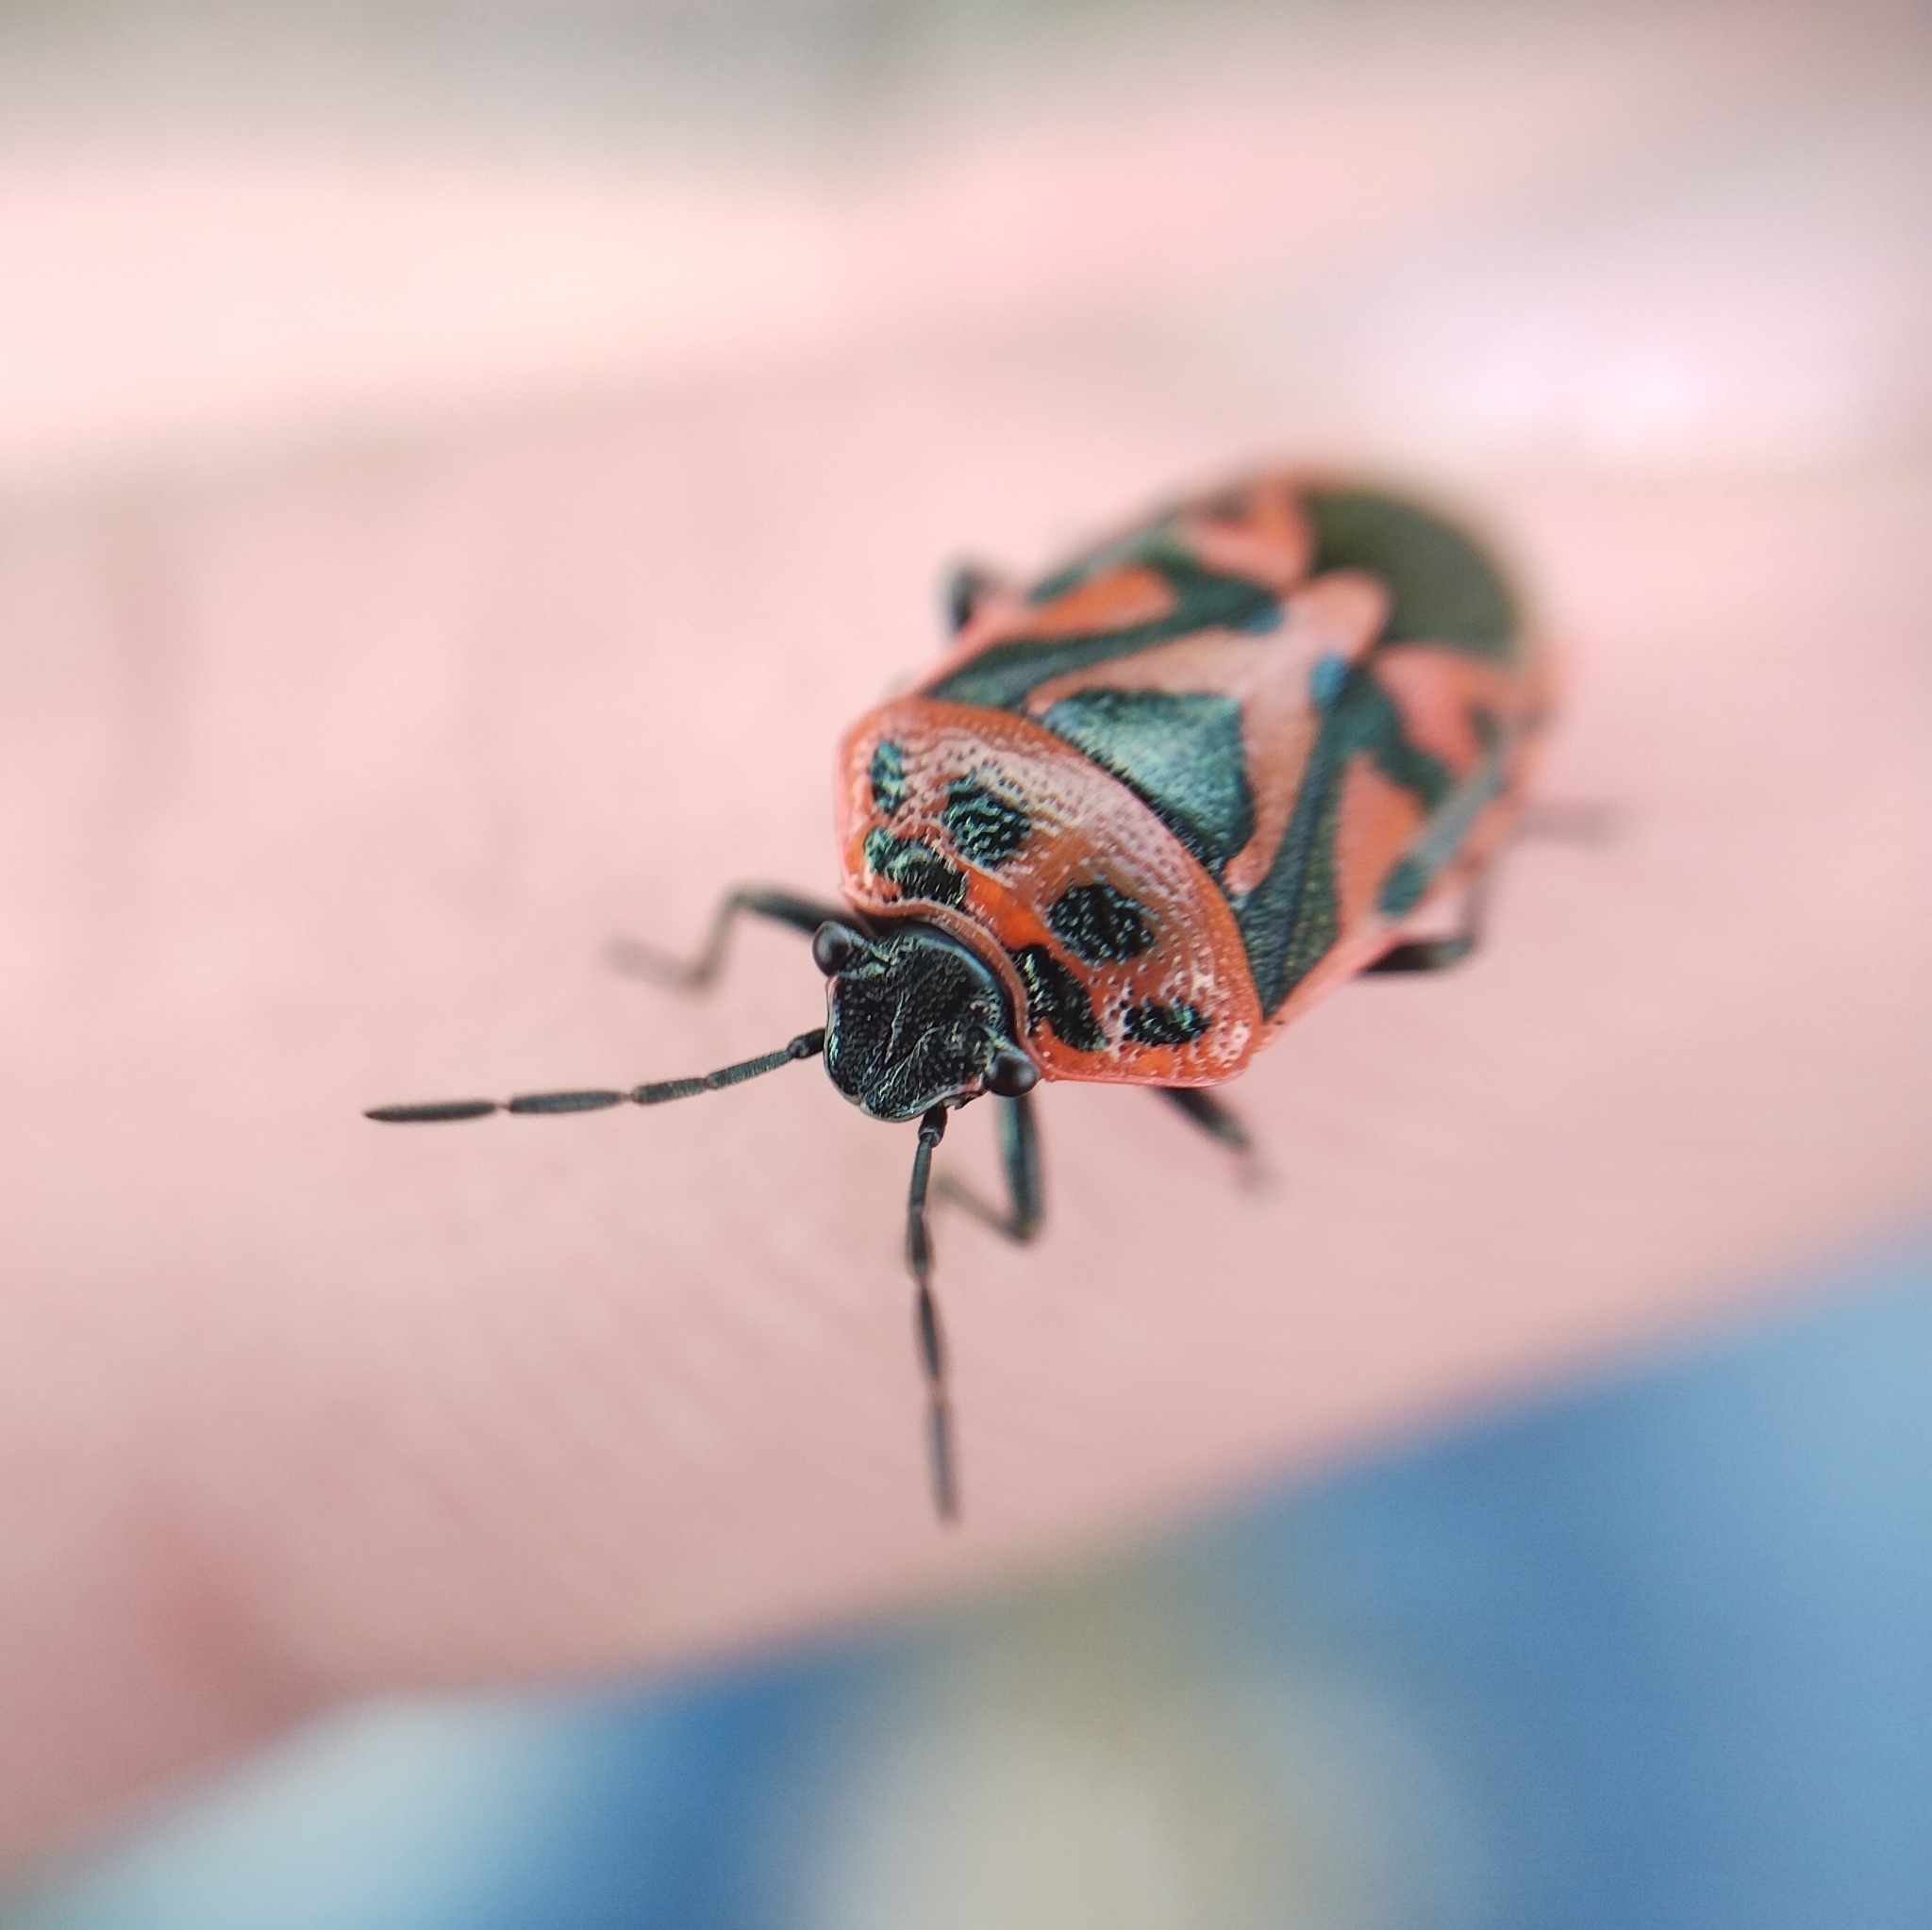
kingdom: Animalia
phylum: Arthropoda
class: Insecta
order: Hemiptera
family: Pentatomidae
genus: Eurydema
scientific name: Eurydema ornata
